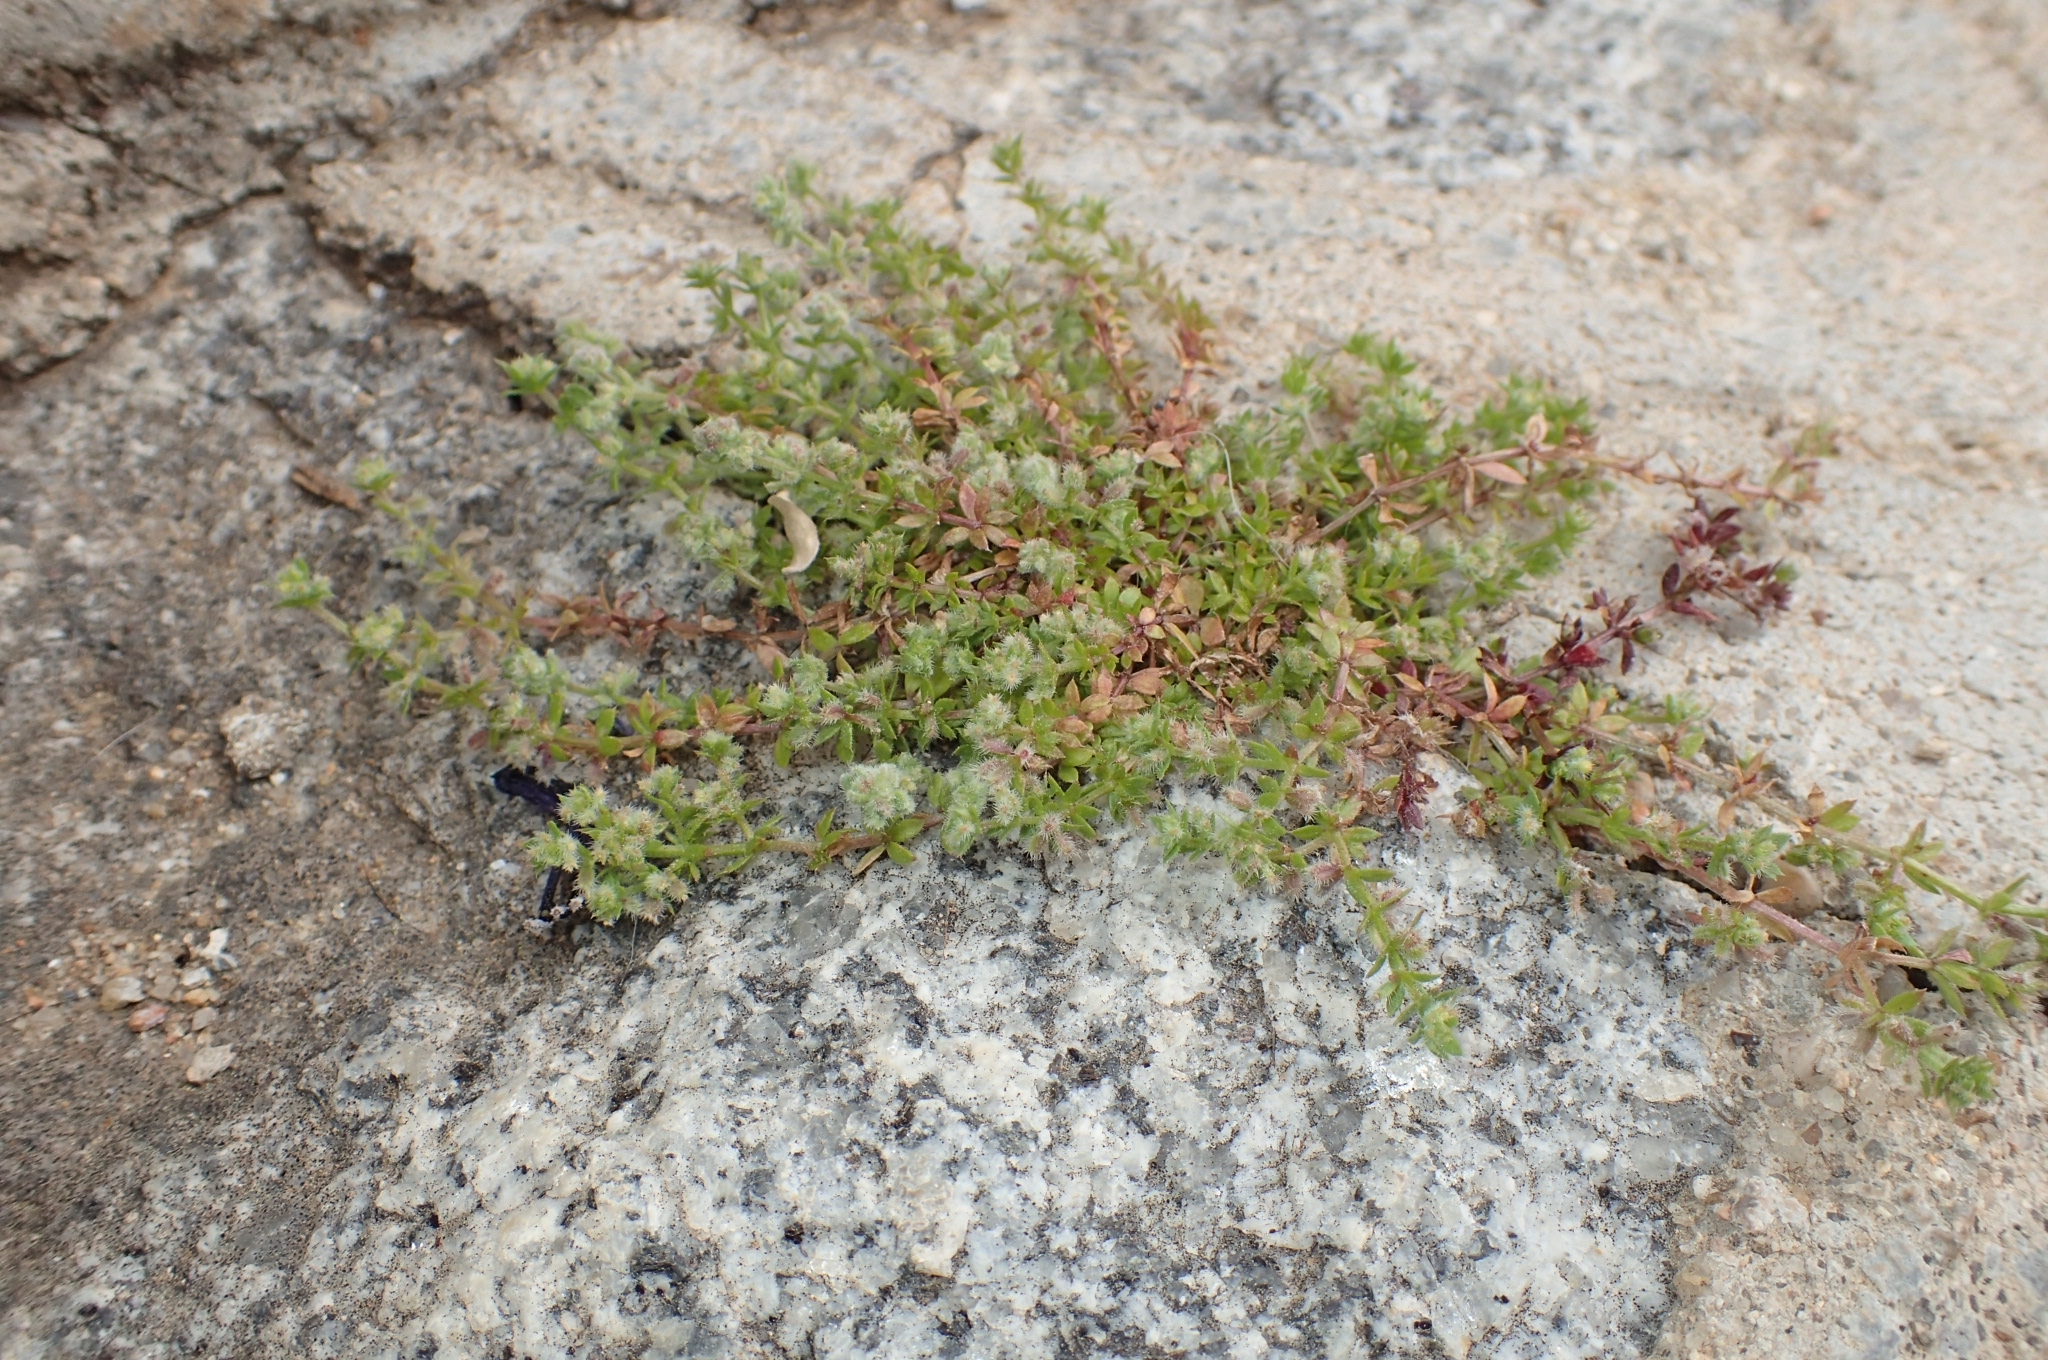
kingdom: Plantae
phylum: Tracheophyta
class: Magnoliopsida
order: Gentianales
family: Rubiaceae
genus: Galium
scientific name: Galium parisiense
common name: Wall bedstraw
